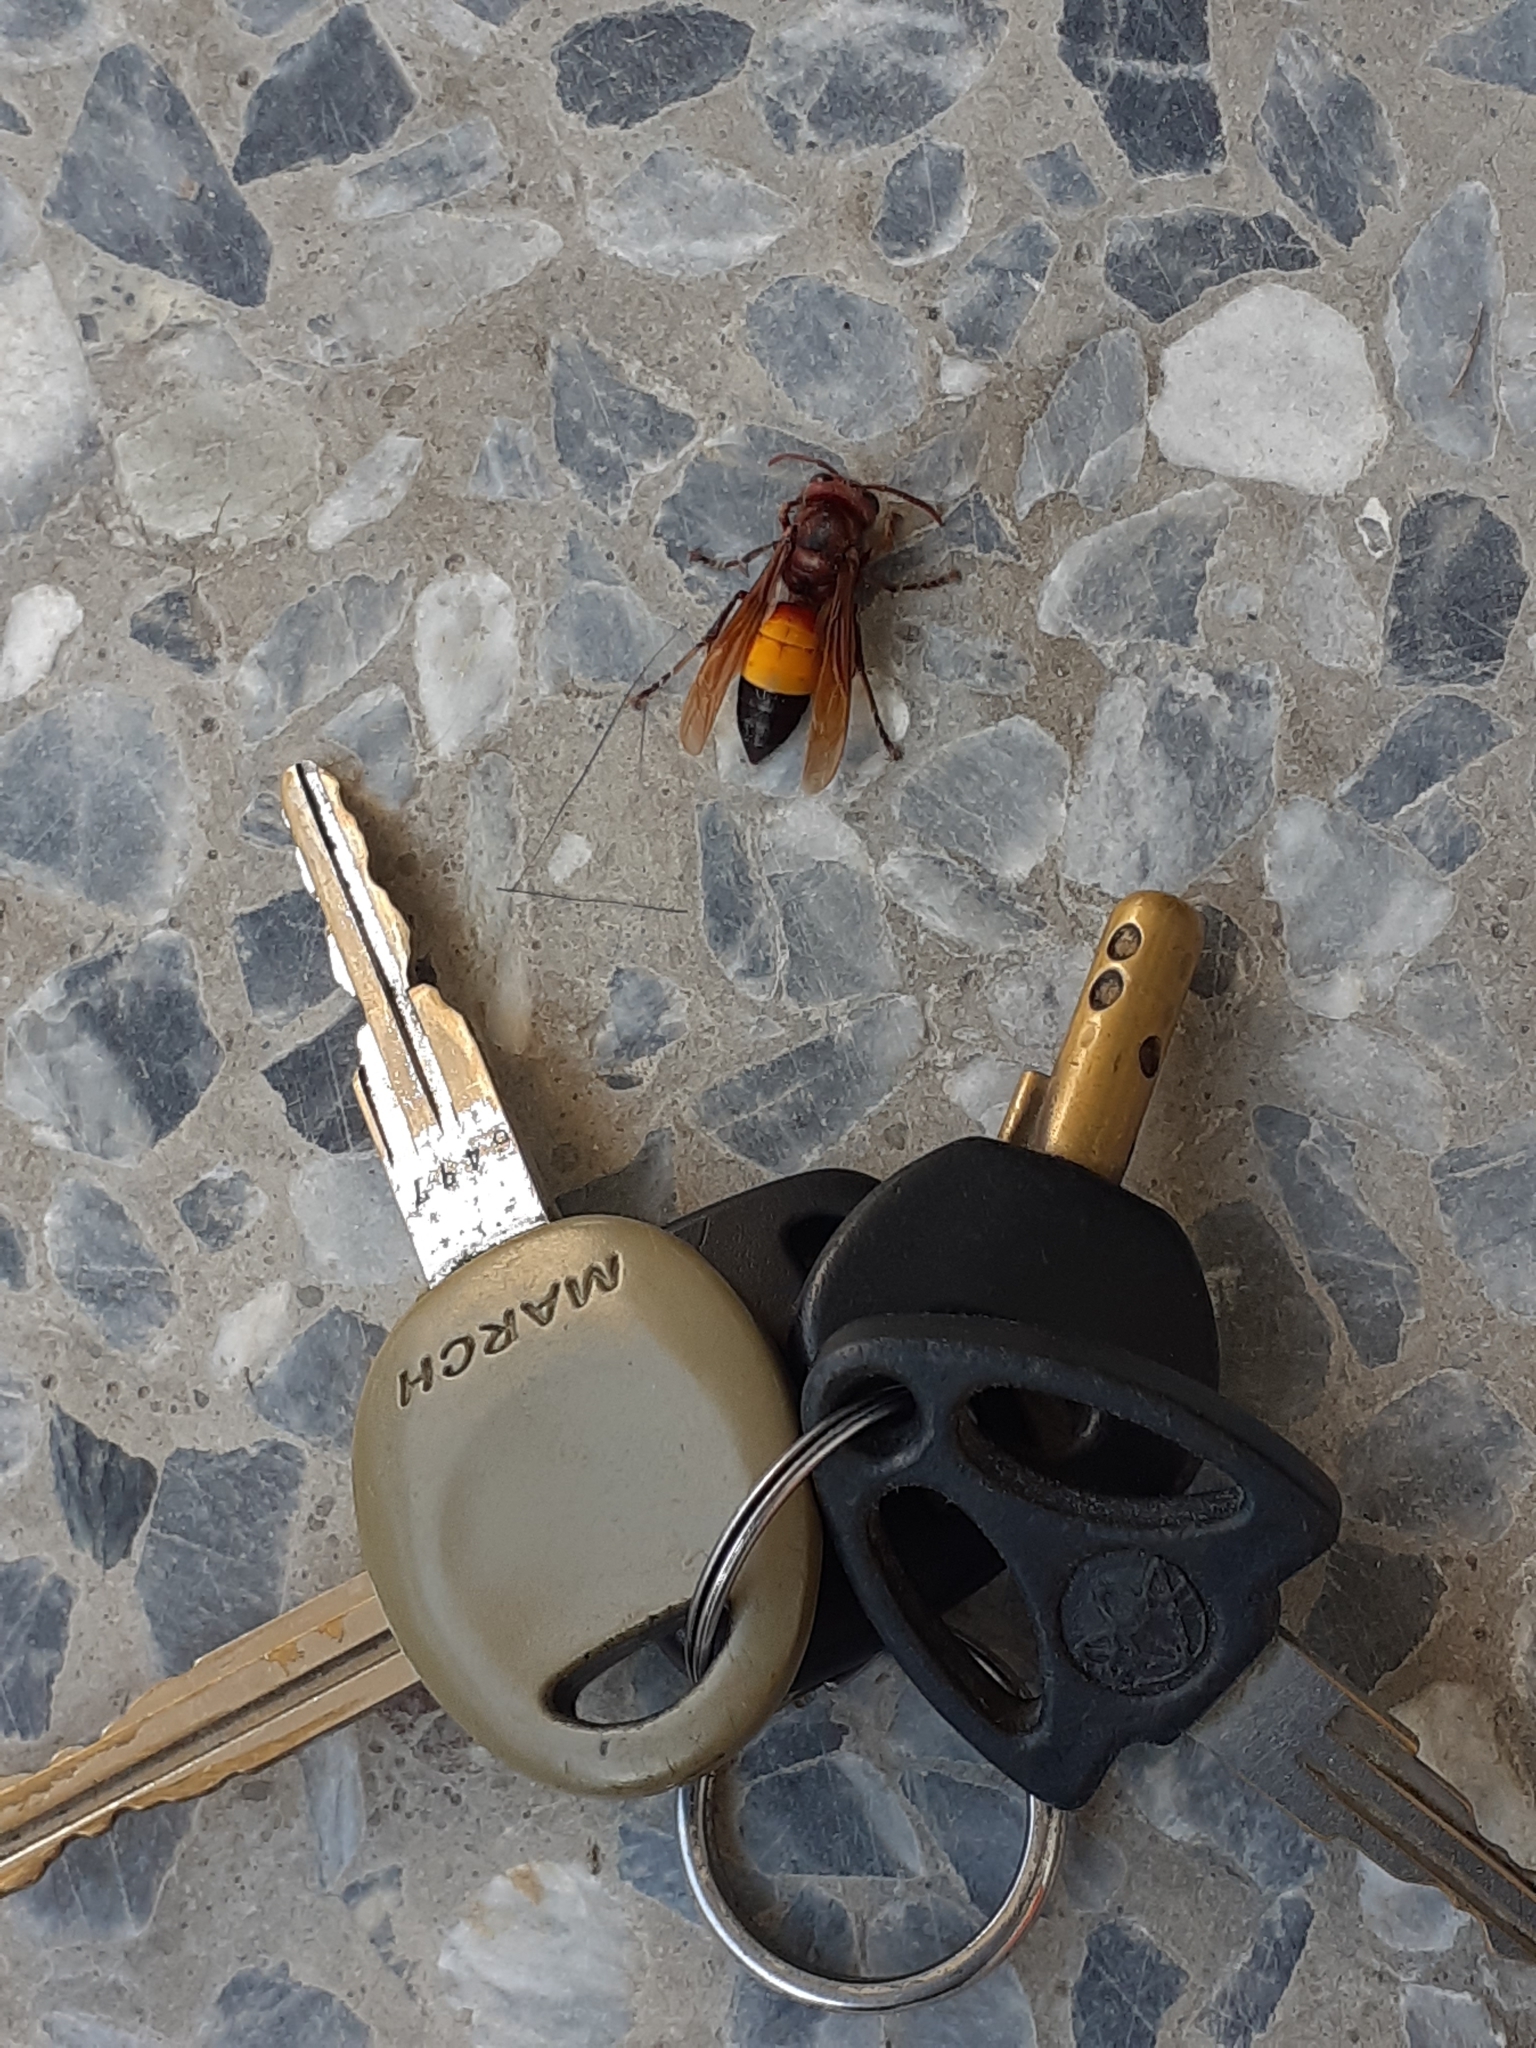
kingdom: Animalia
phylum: Arthropoda
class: Insecta
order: Hymenoptera
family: Vespidae
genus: Vespa
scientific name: Vespa affinis
